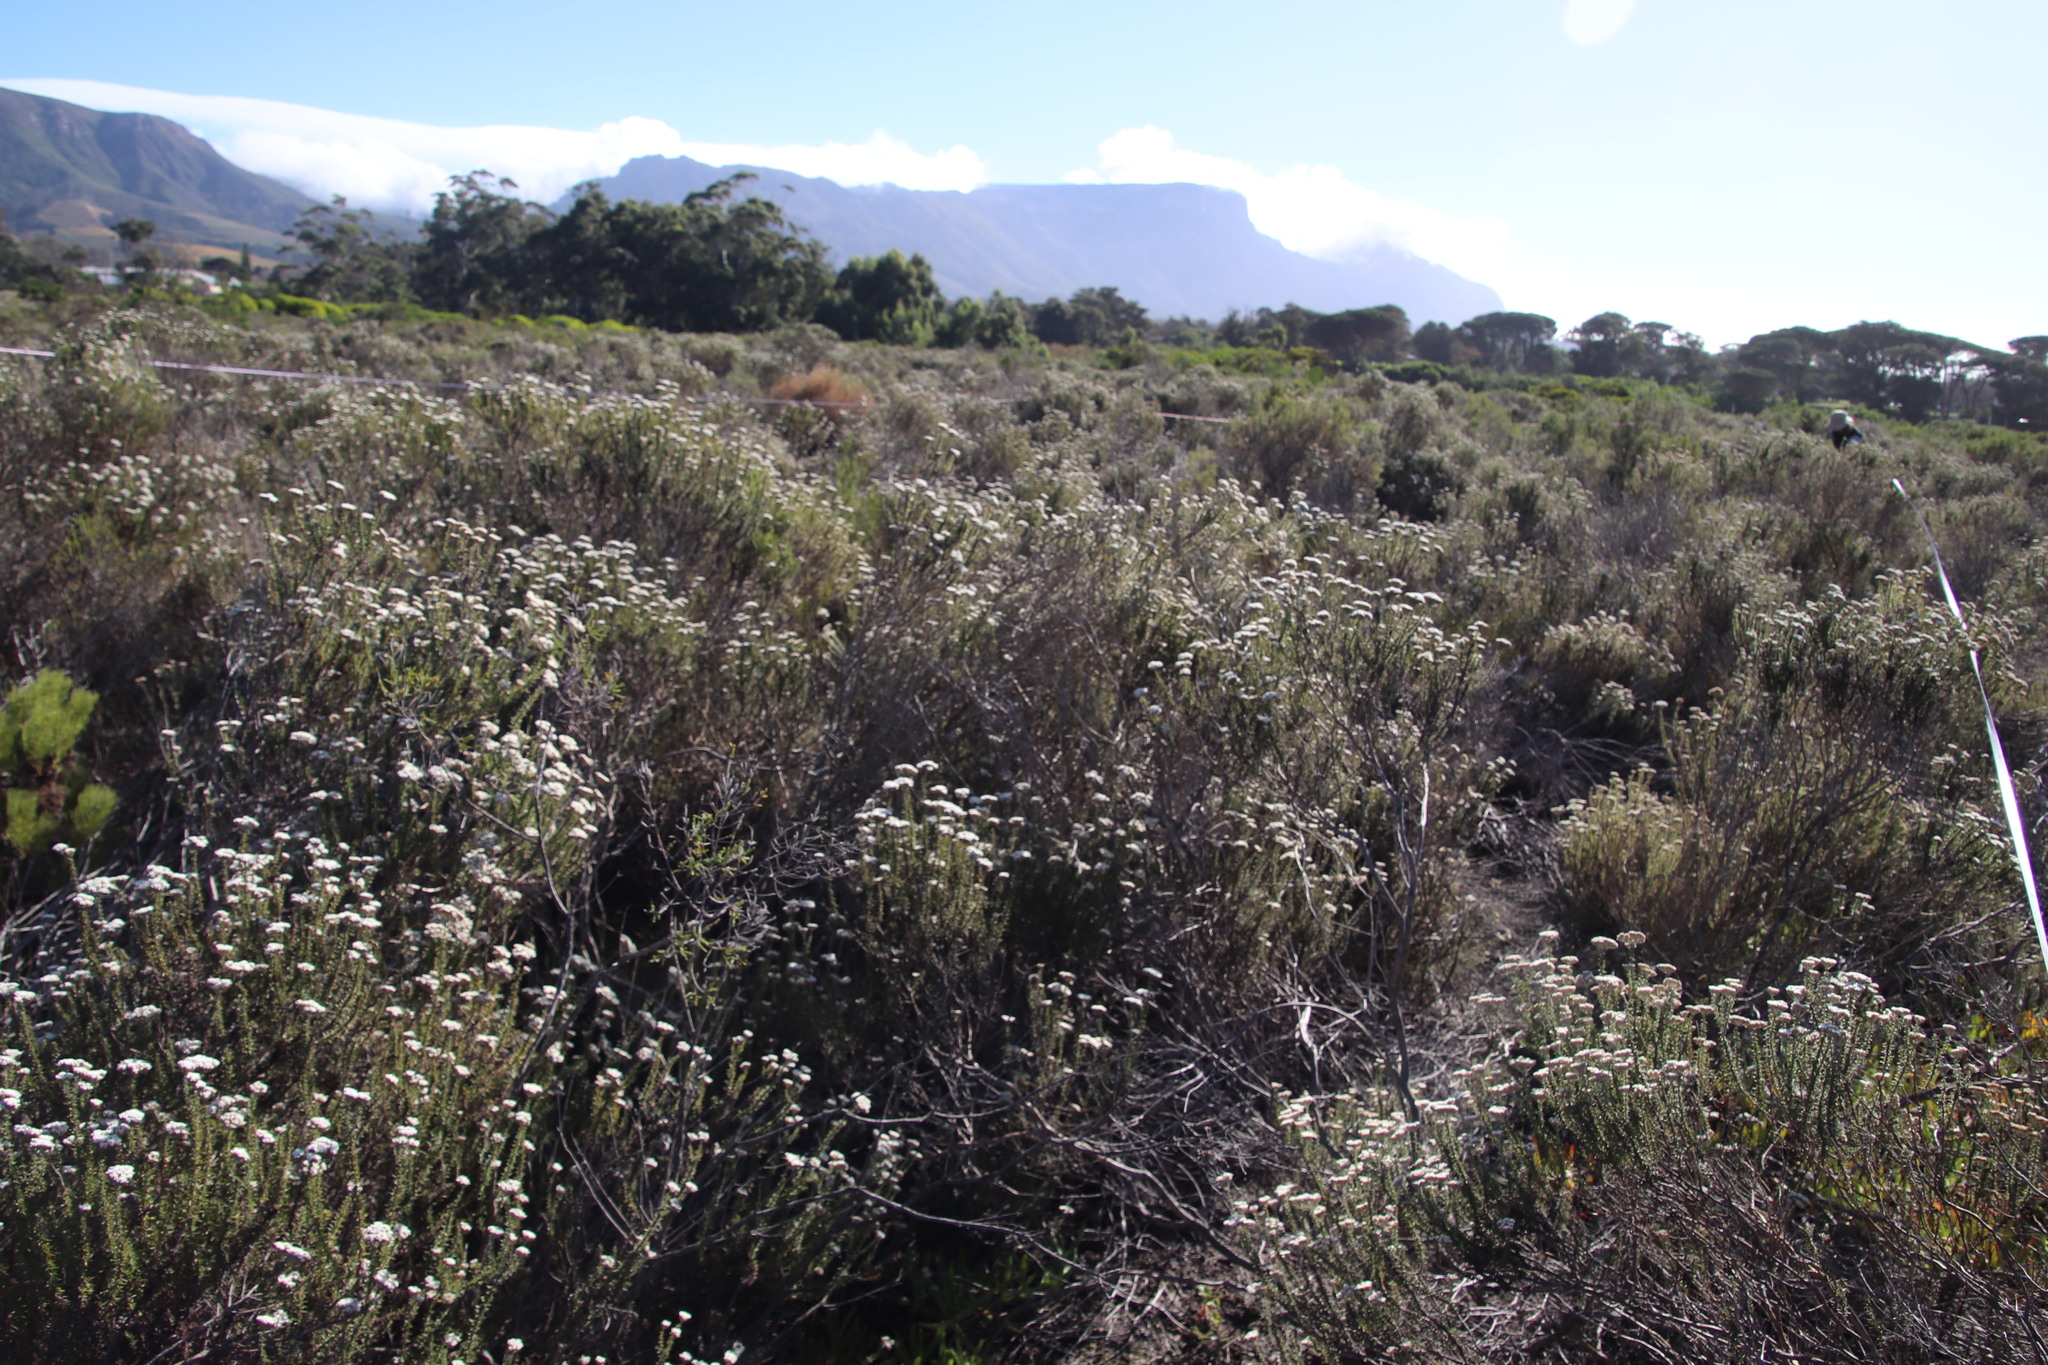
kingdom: Plantae
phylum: Tracheophyta
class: Magnoliopsida
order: Asterales
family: Asteraceae
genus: Metalasia
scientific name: Metalasia densa
